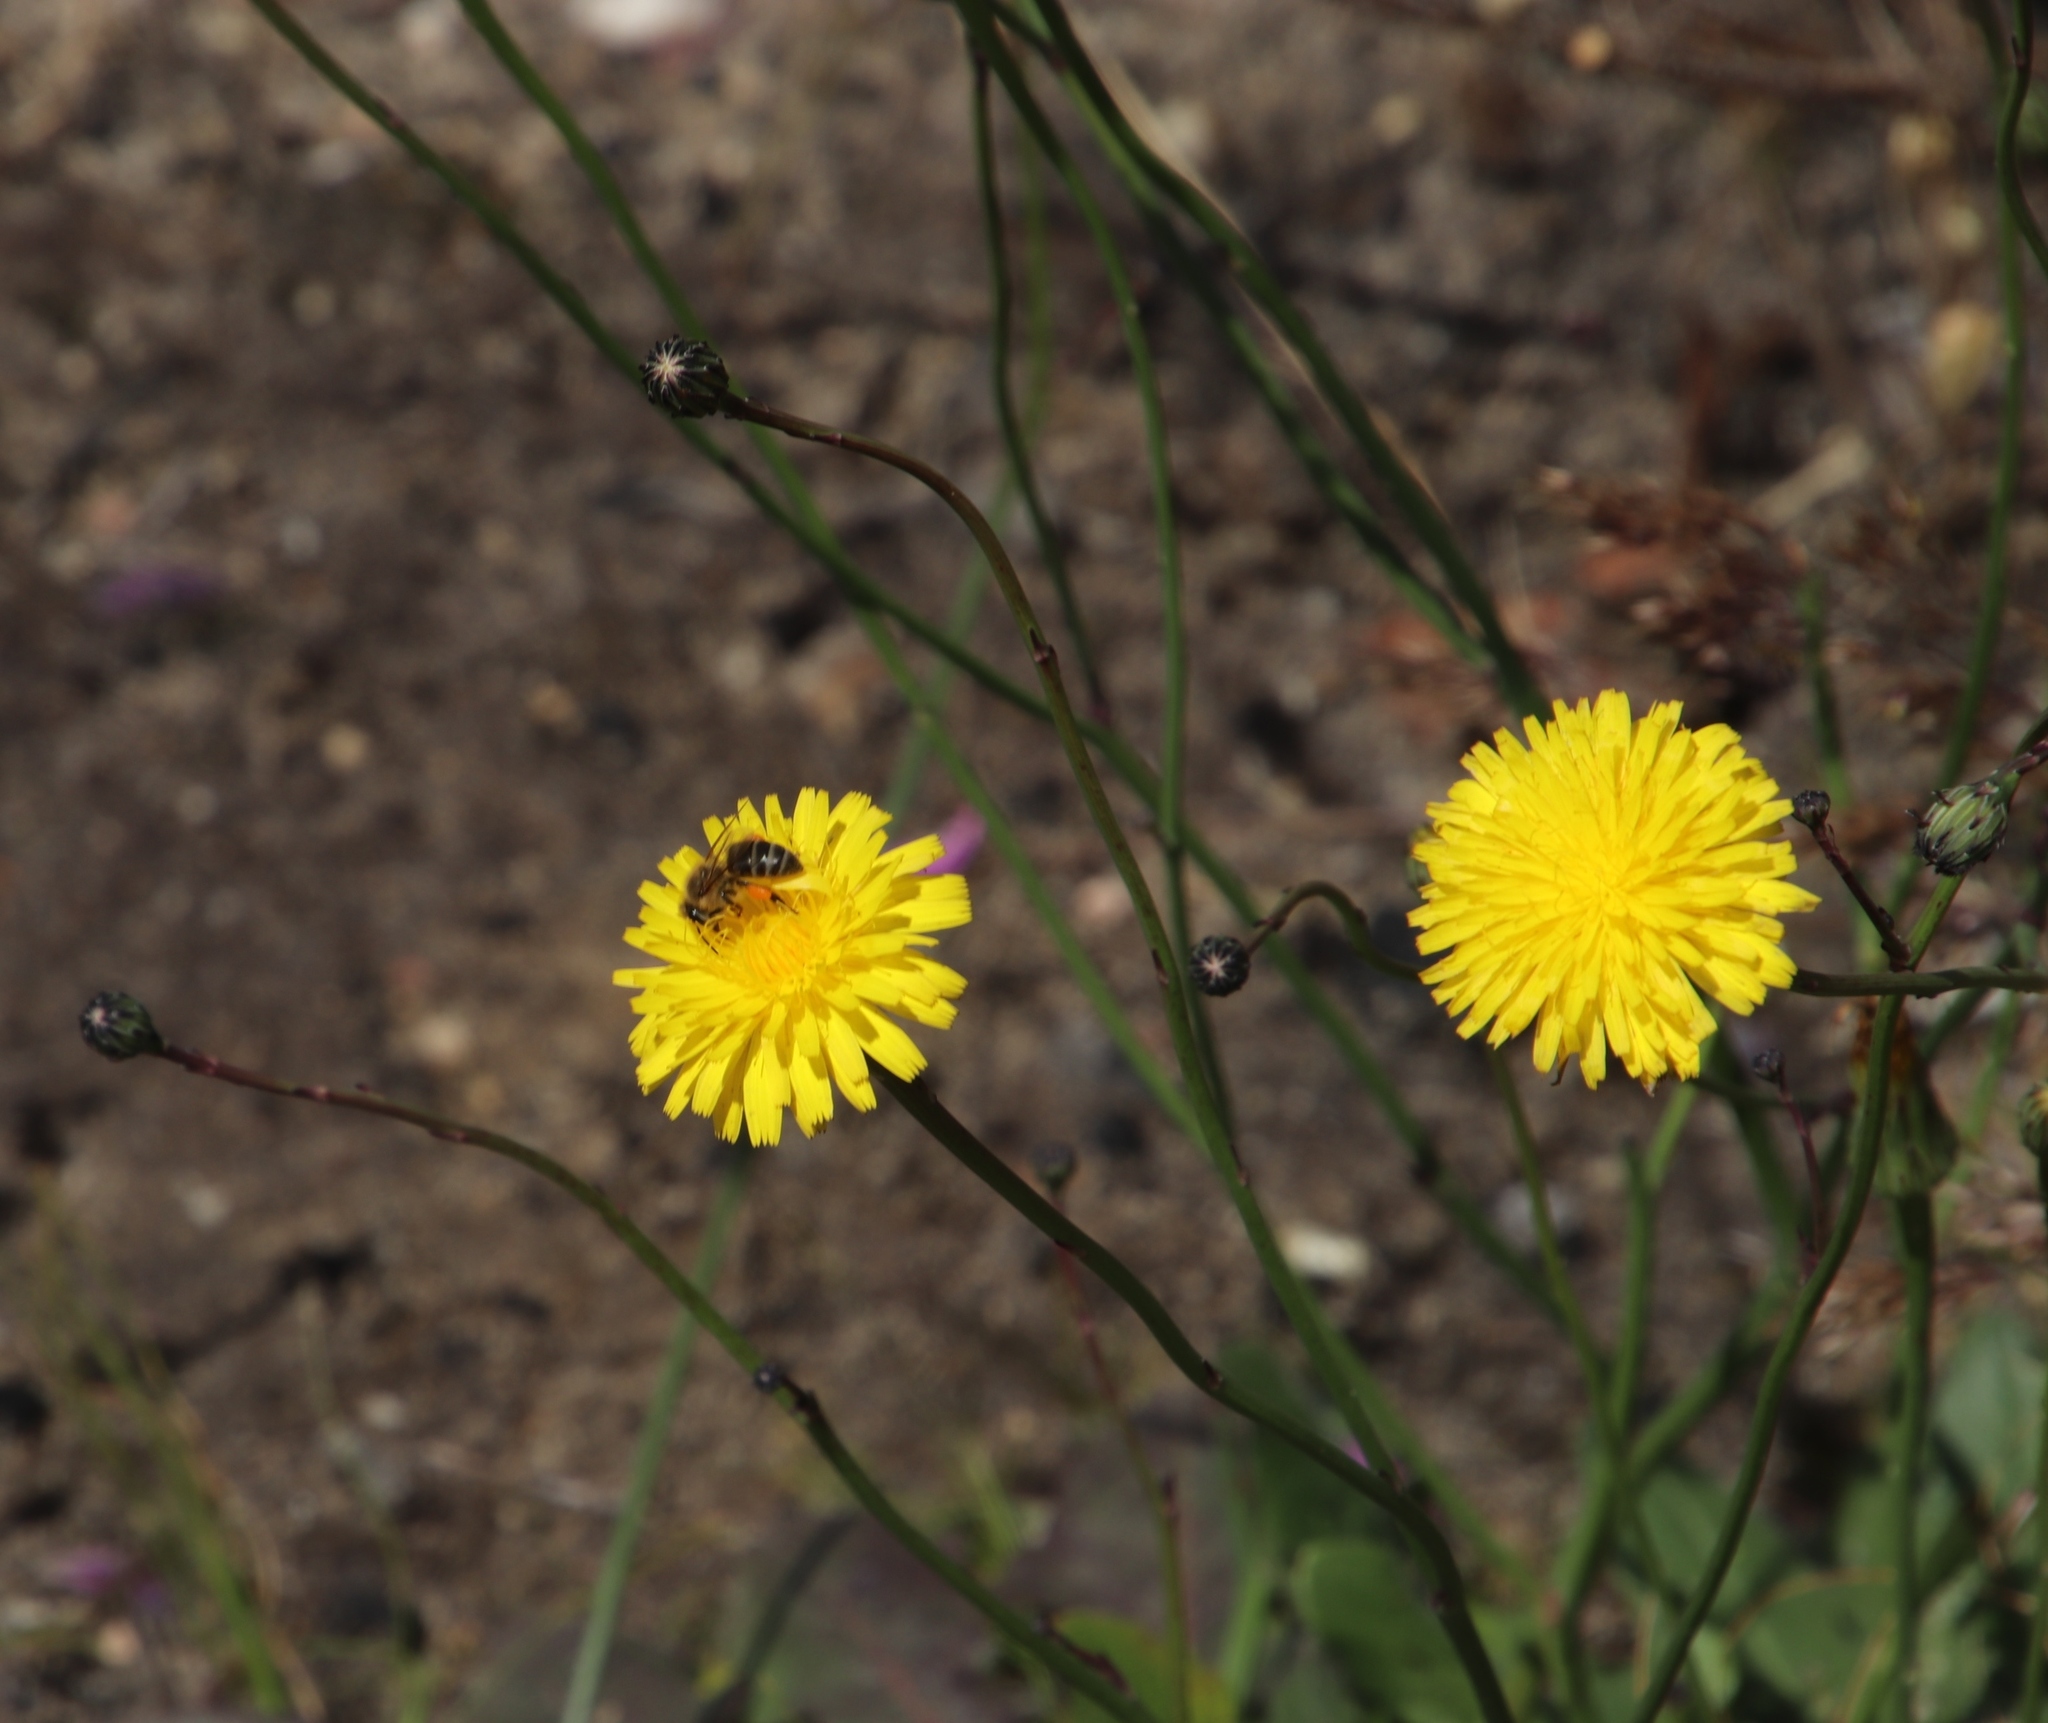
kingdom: Plantae
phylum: Tracheophyta
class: Magnoliopsida
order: Asterales
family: Asteraceae
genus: Hypochaeris
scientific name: Hypochaeris radicata
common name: Flatweed
